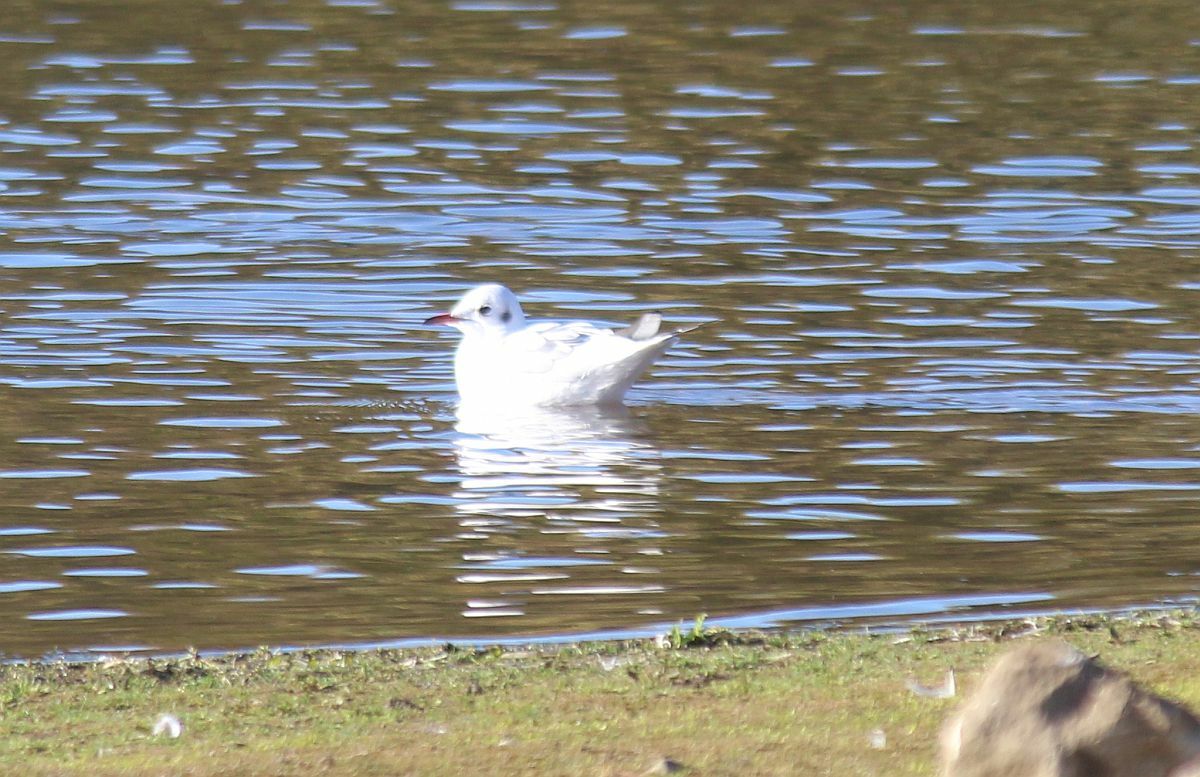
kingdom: Animalia
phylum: Chordata
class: Aves
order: Charadriiformes
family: Laridae
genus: Chroicocephalus
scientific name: Chroicocephalus ridibundus
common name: Black-headed gull
